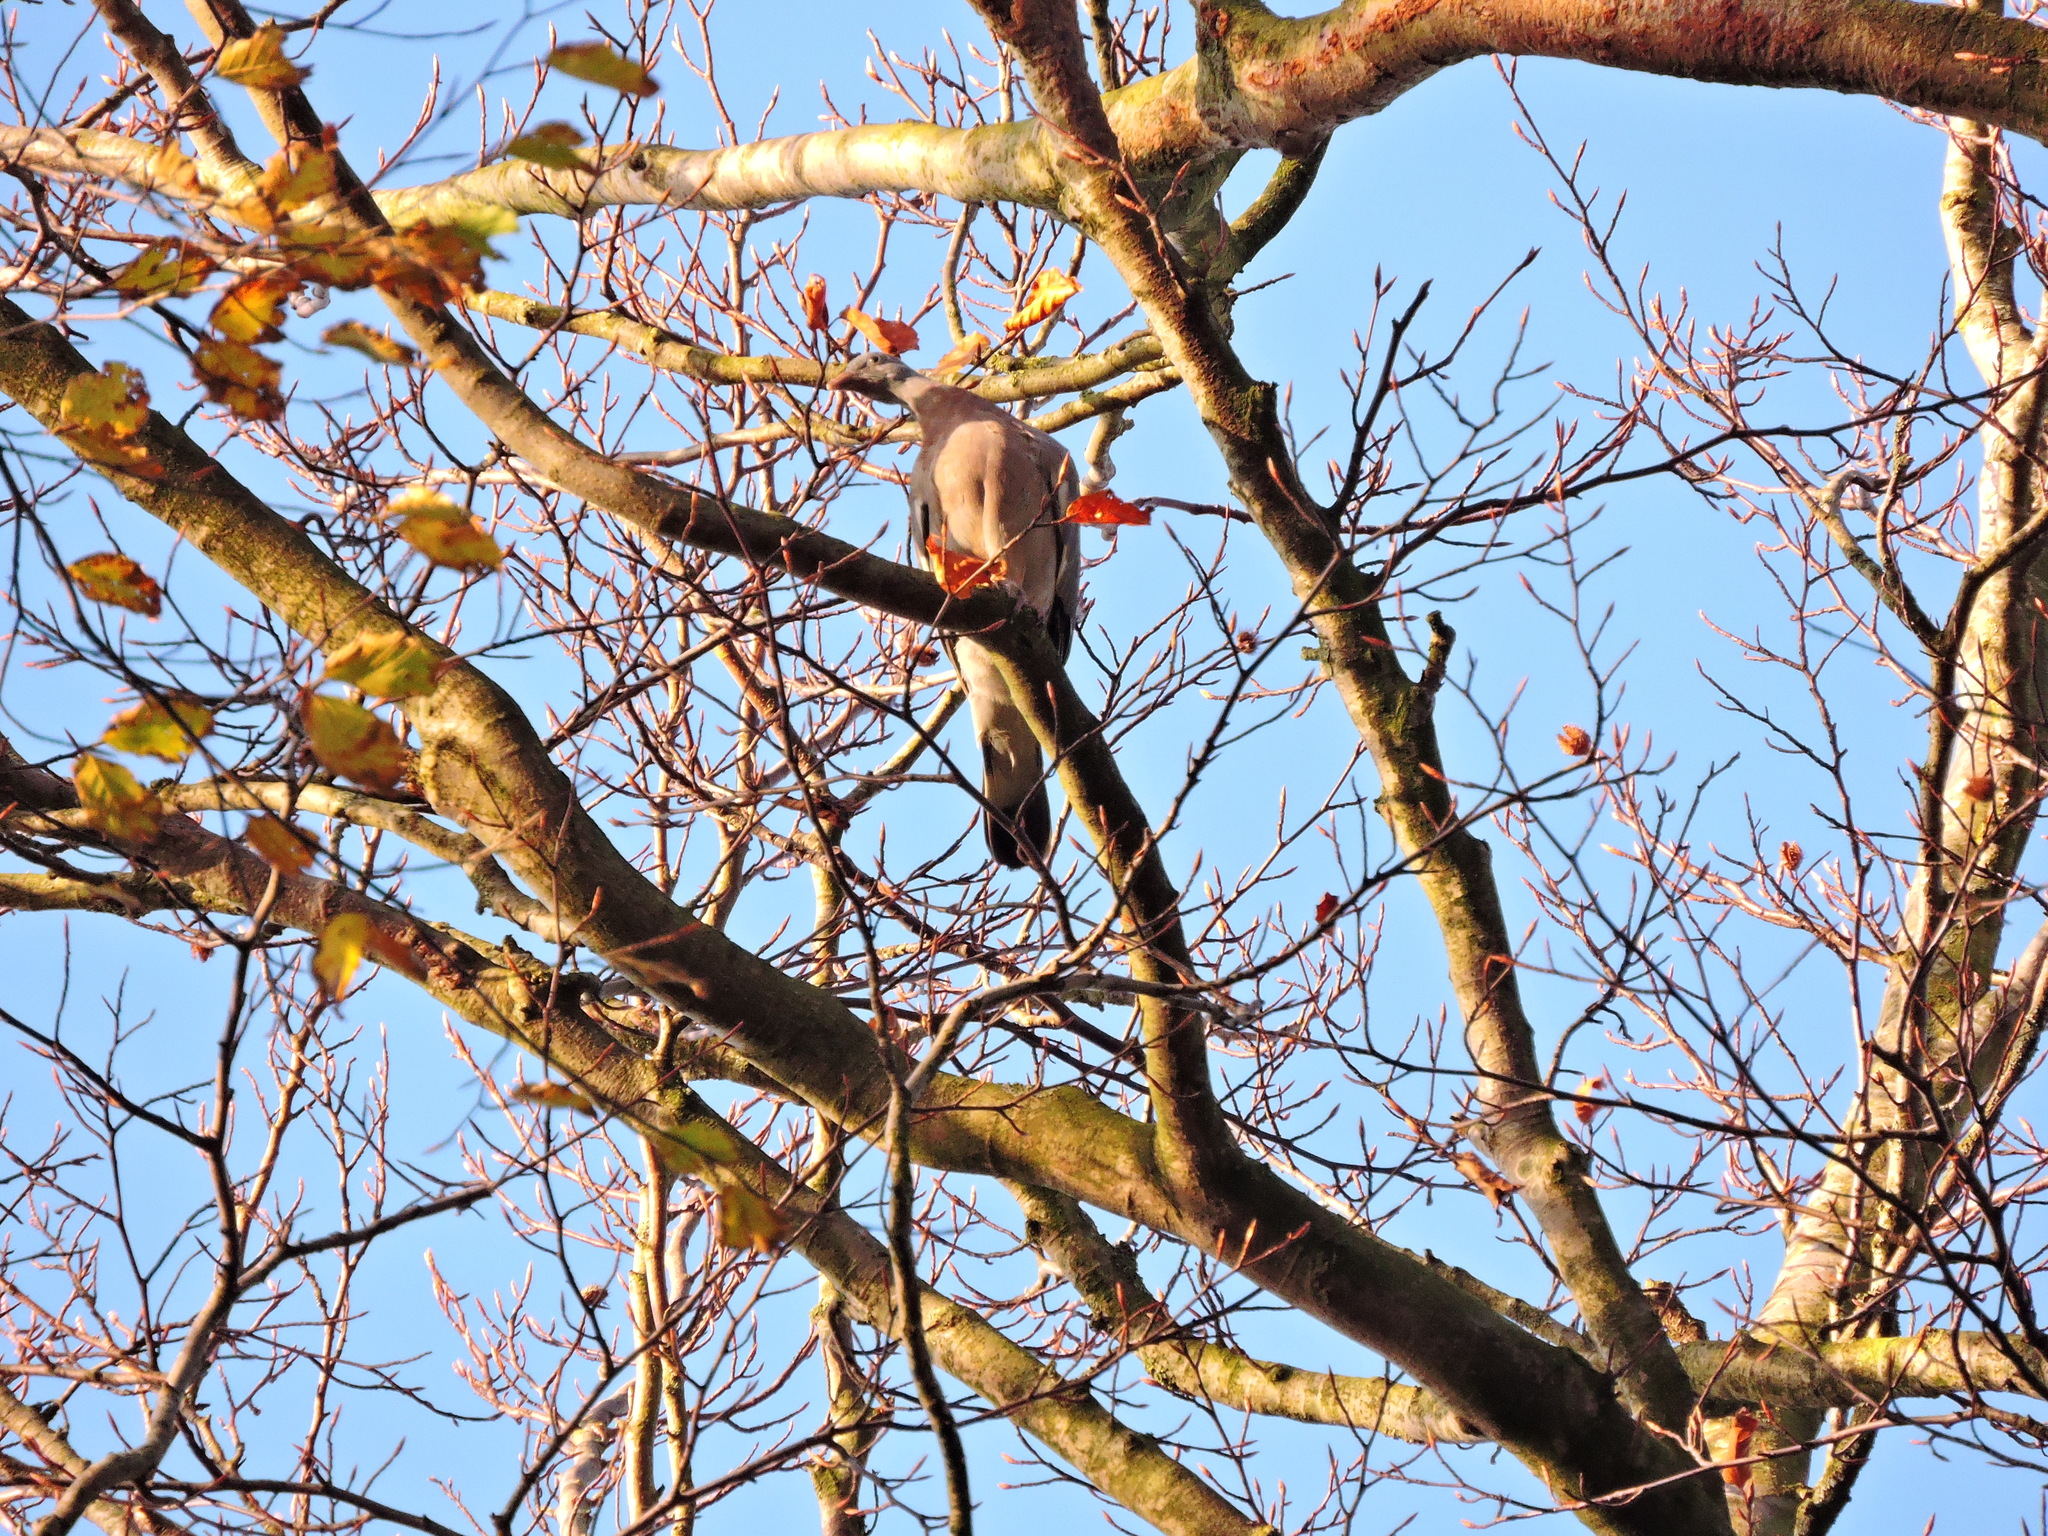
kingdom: Animalia
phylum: Chordata
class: Aves
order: Columbiformes
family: Columbidae
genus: Columba
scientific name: Columba palumbus
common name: Common wood pigeon
